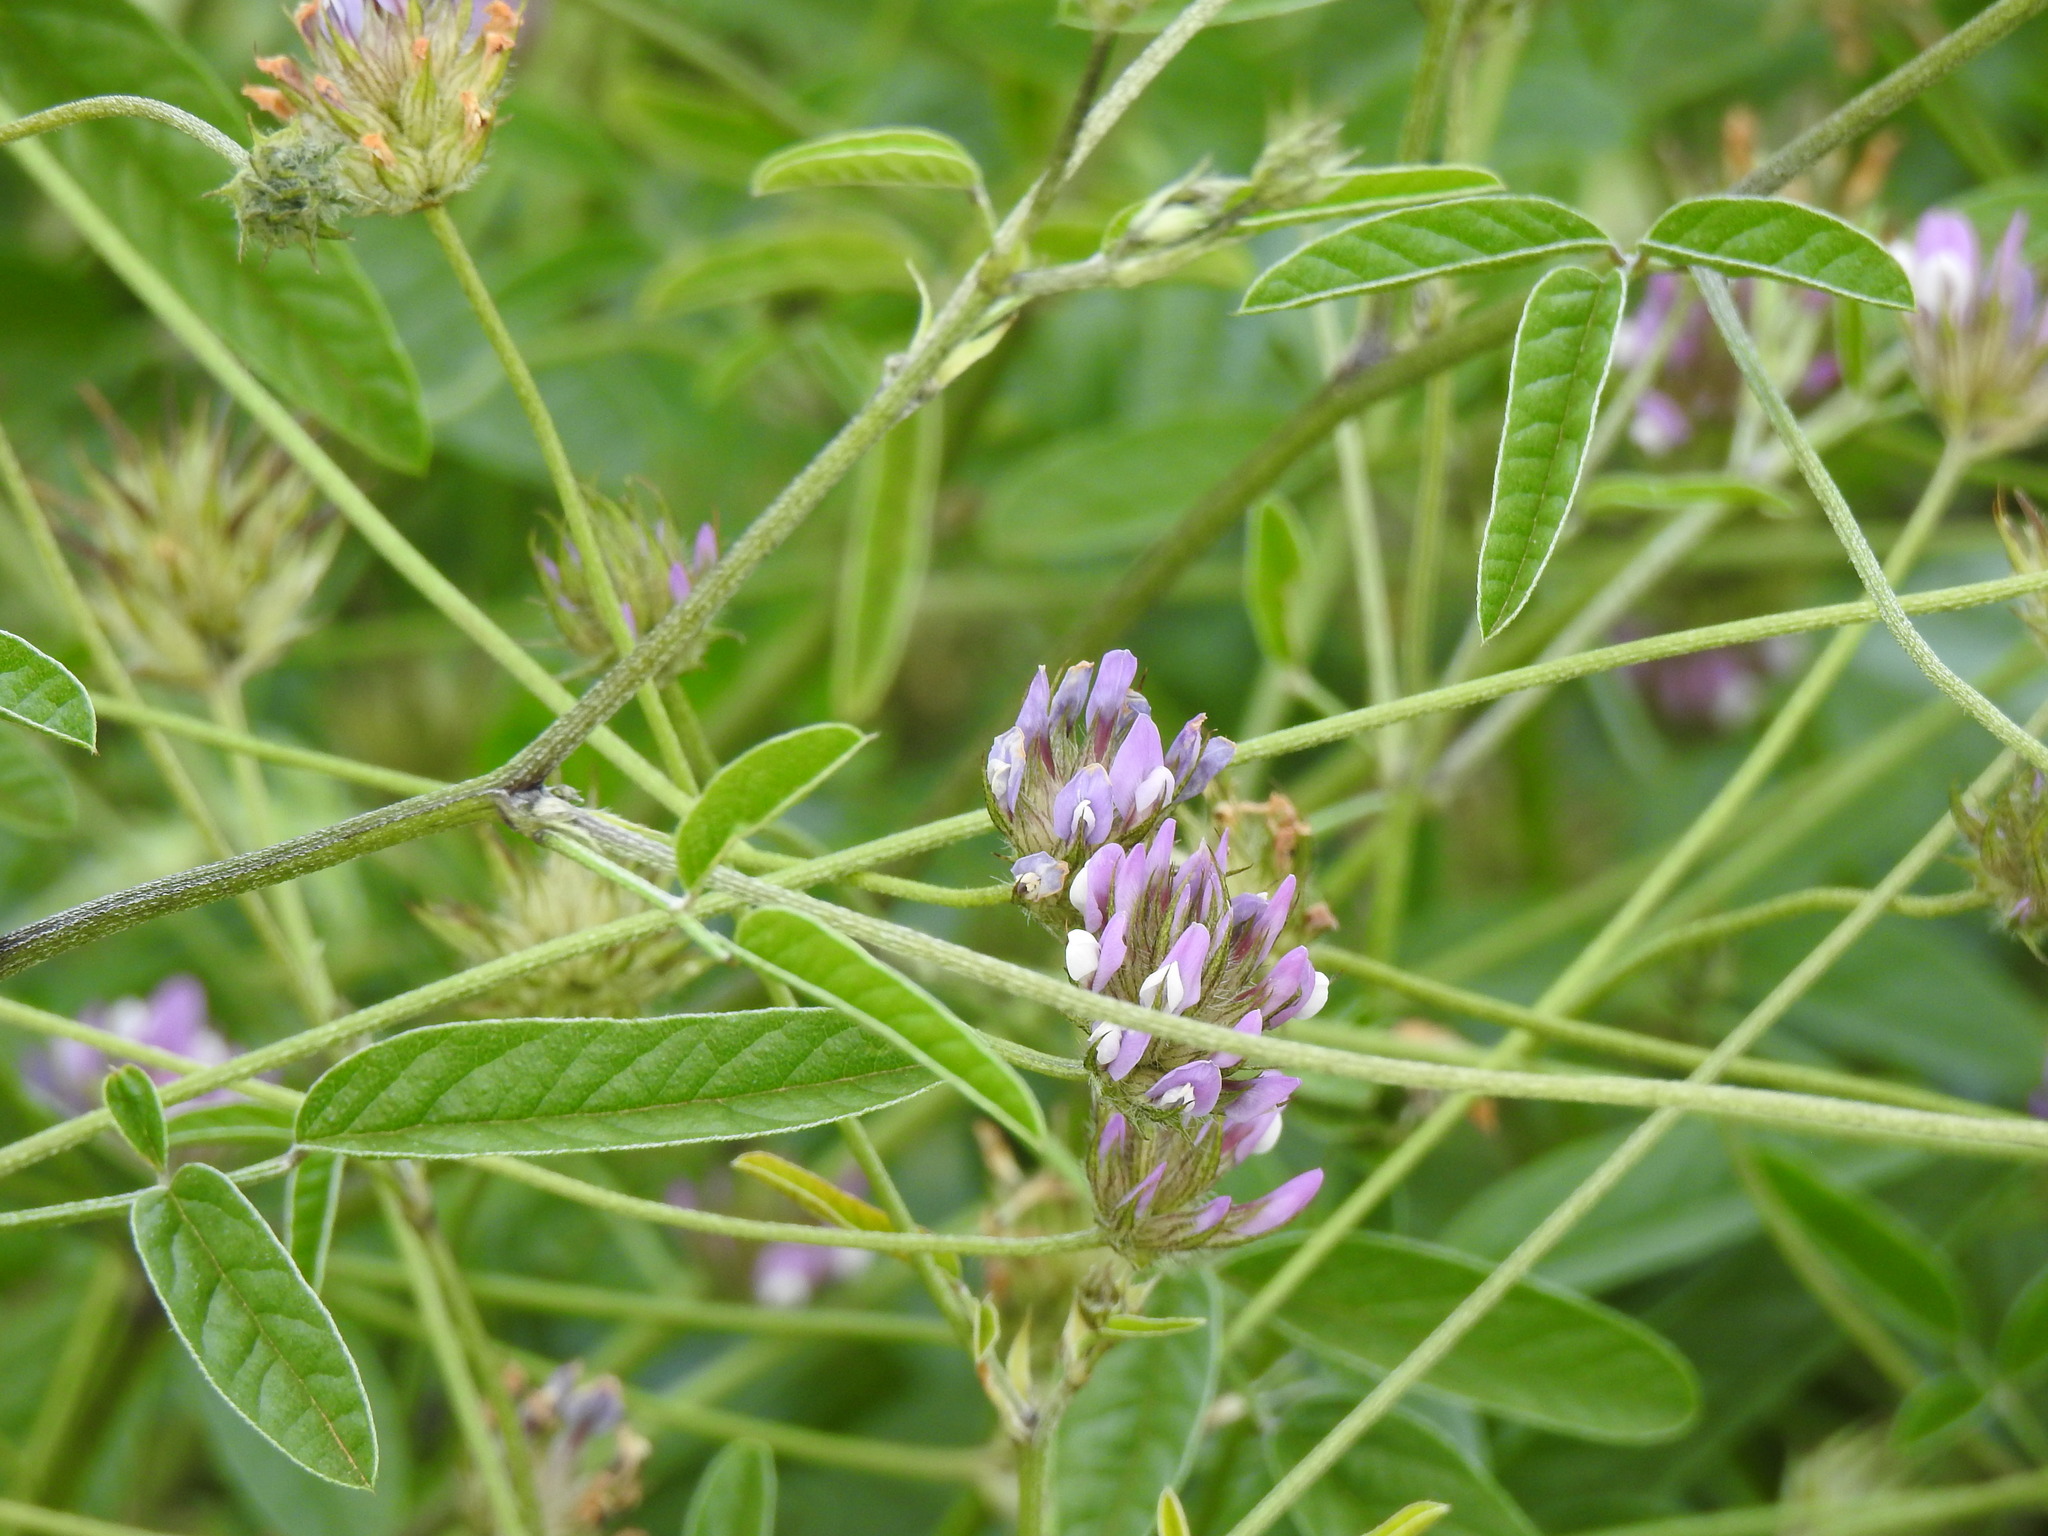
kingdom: Plantae
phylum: Tracheophyta
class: Magnoliopsida
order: Fabales
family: Fabaceae
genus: Bituminaria
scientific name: Bituminaria bituminosa
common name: Arabian pea
